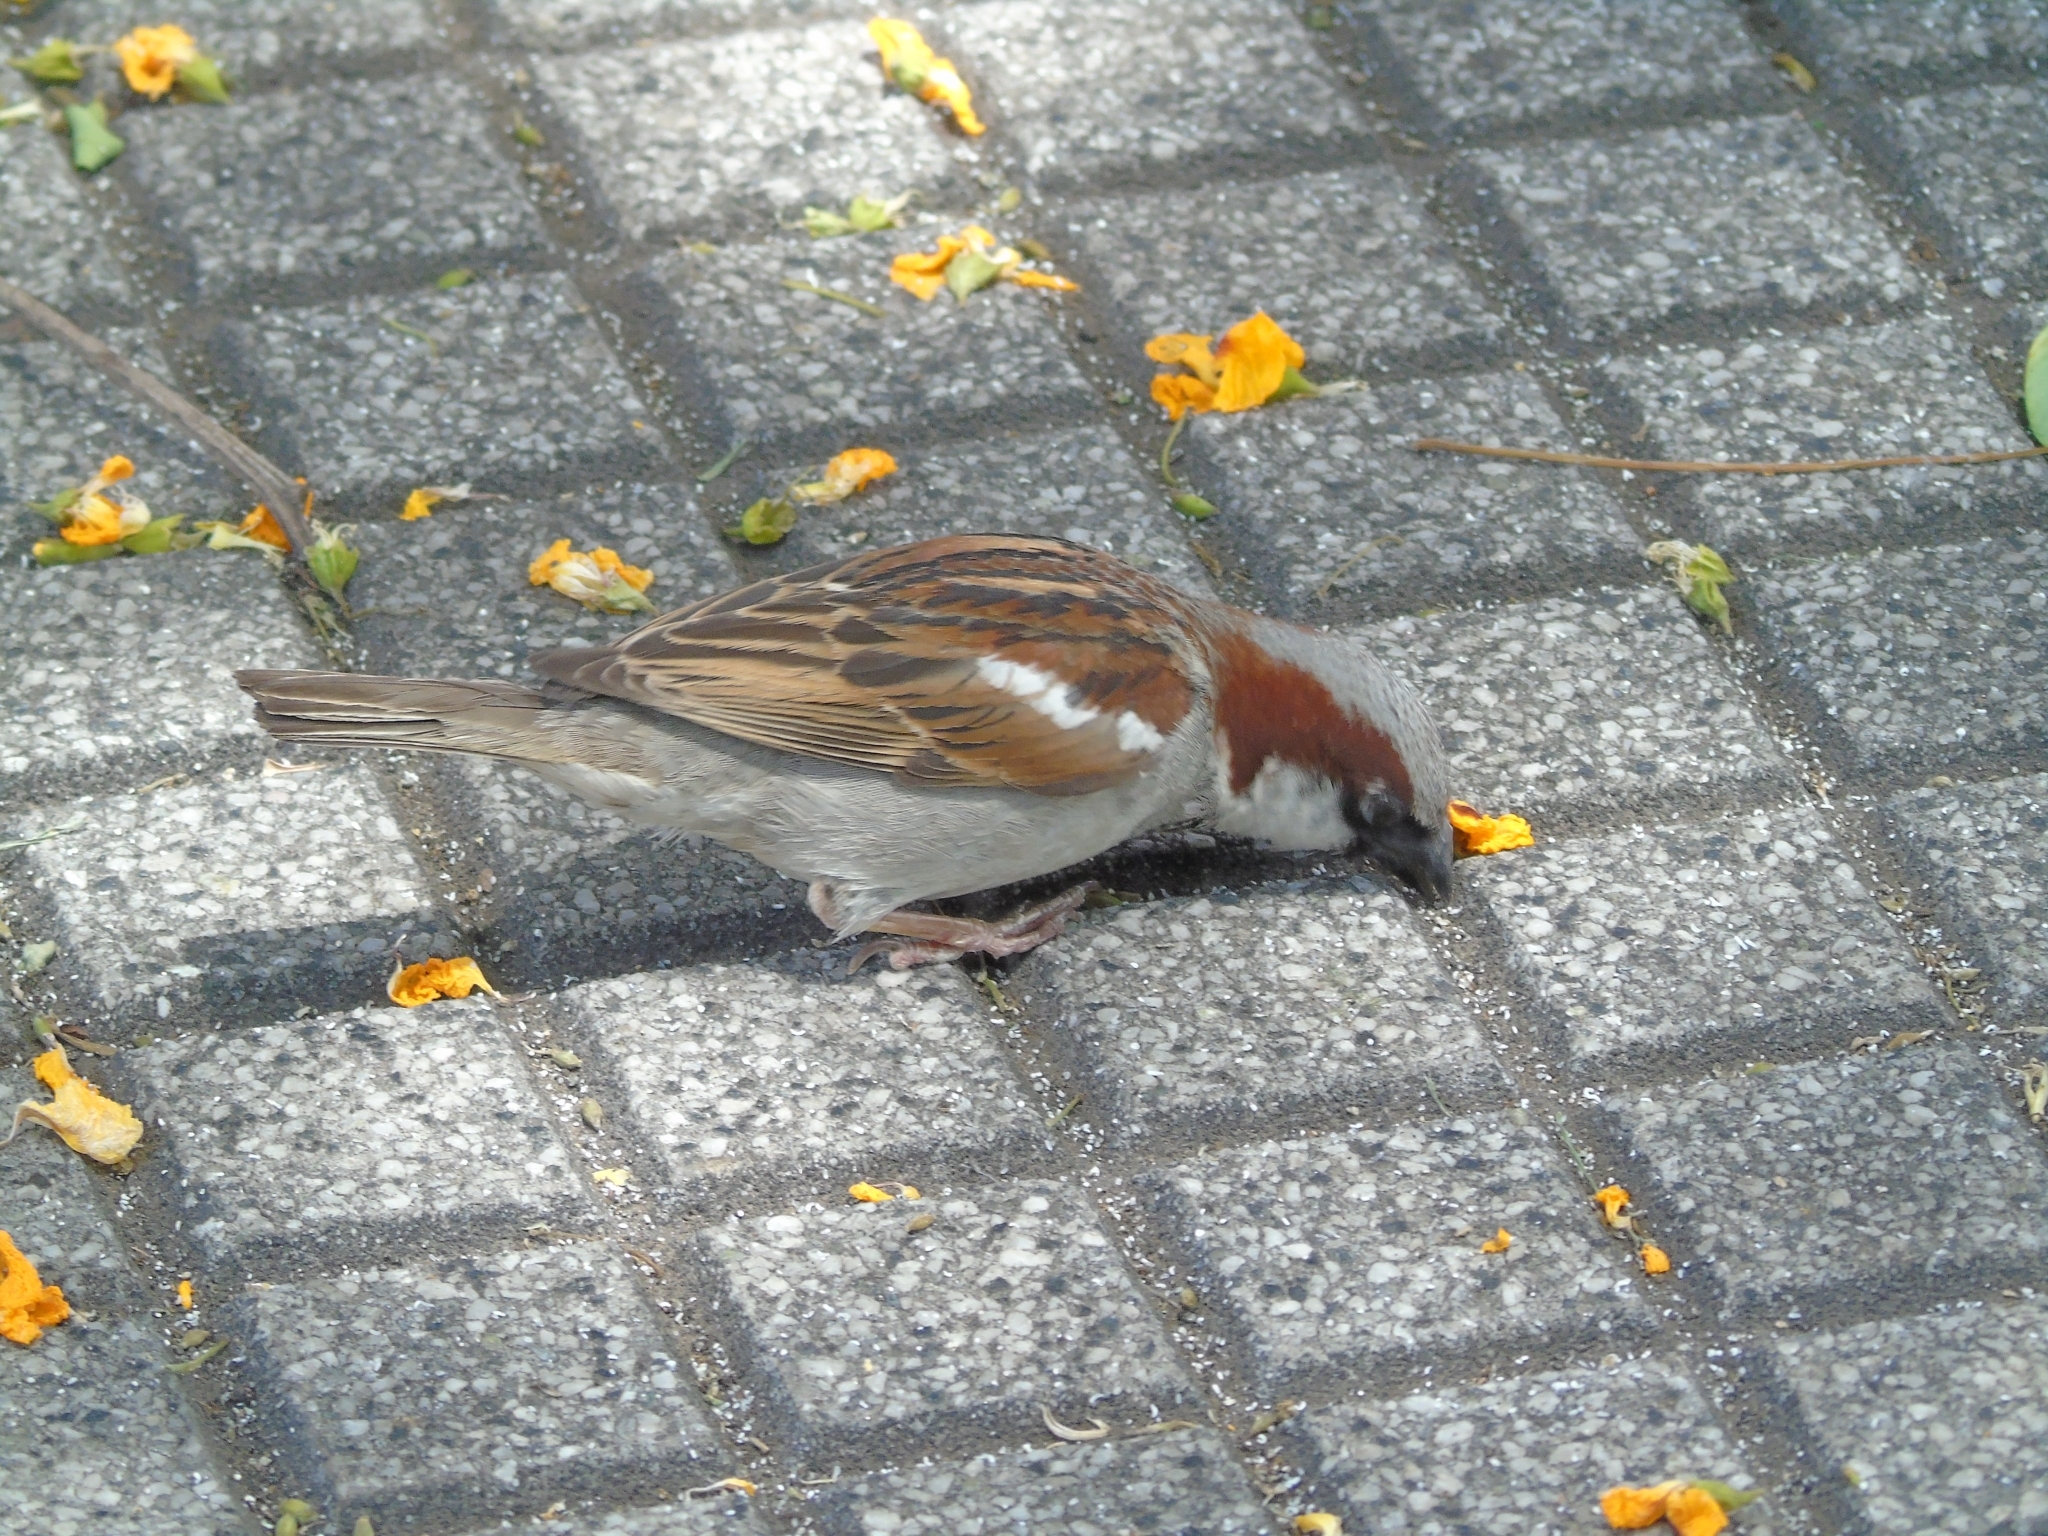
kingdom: Animalia
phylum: Chordata
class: Aves
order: Passeriformes
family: Passeridae
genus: Passer
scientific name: Passer domesticus
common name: House sparrow
